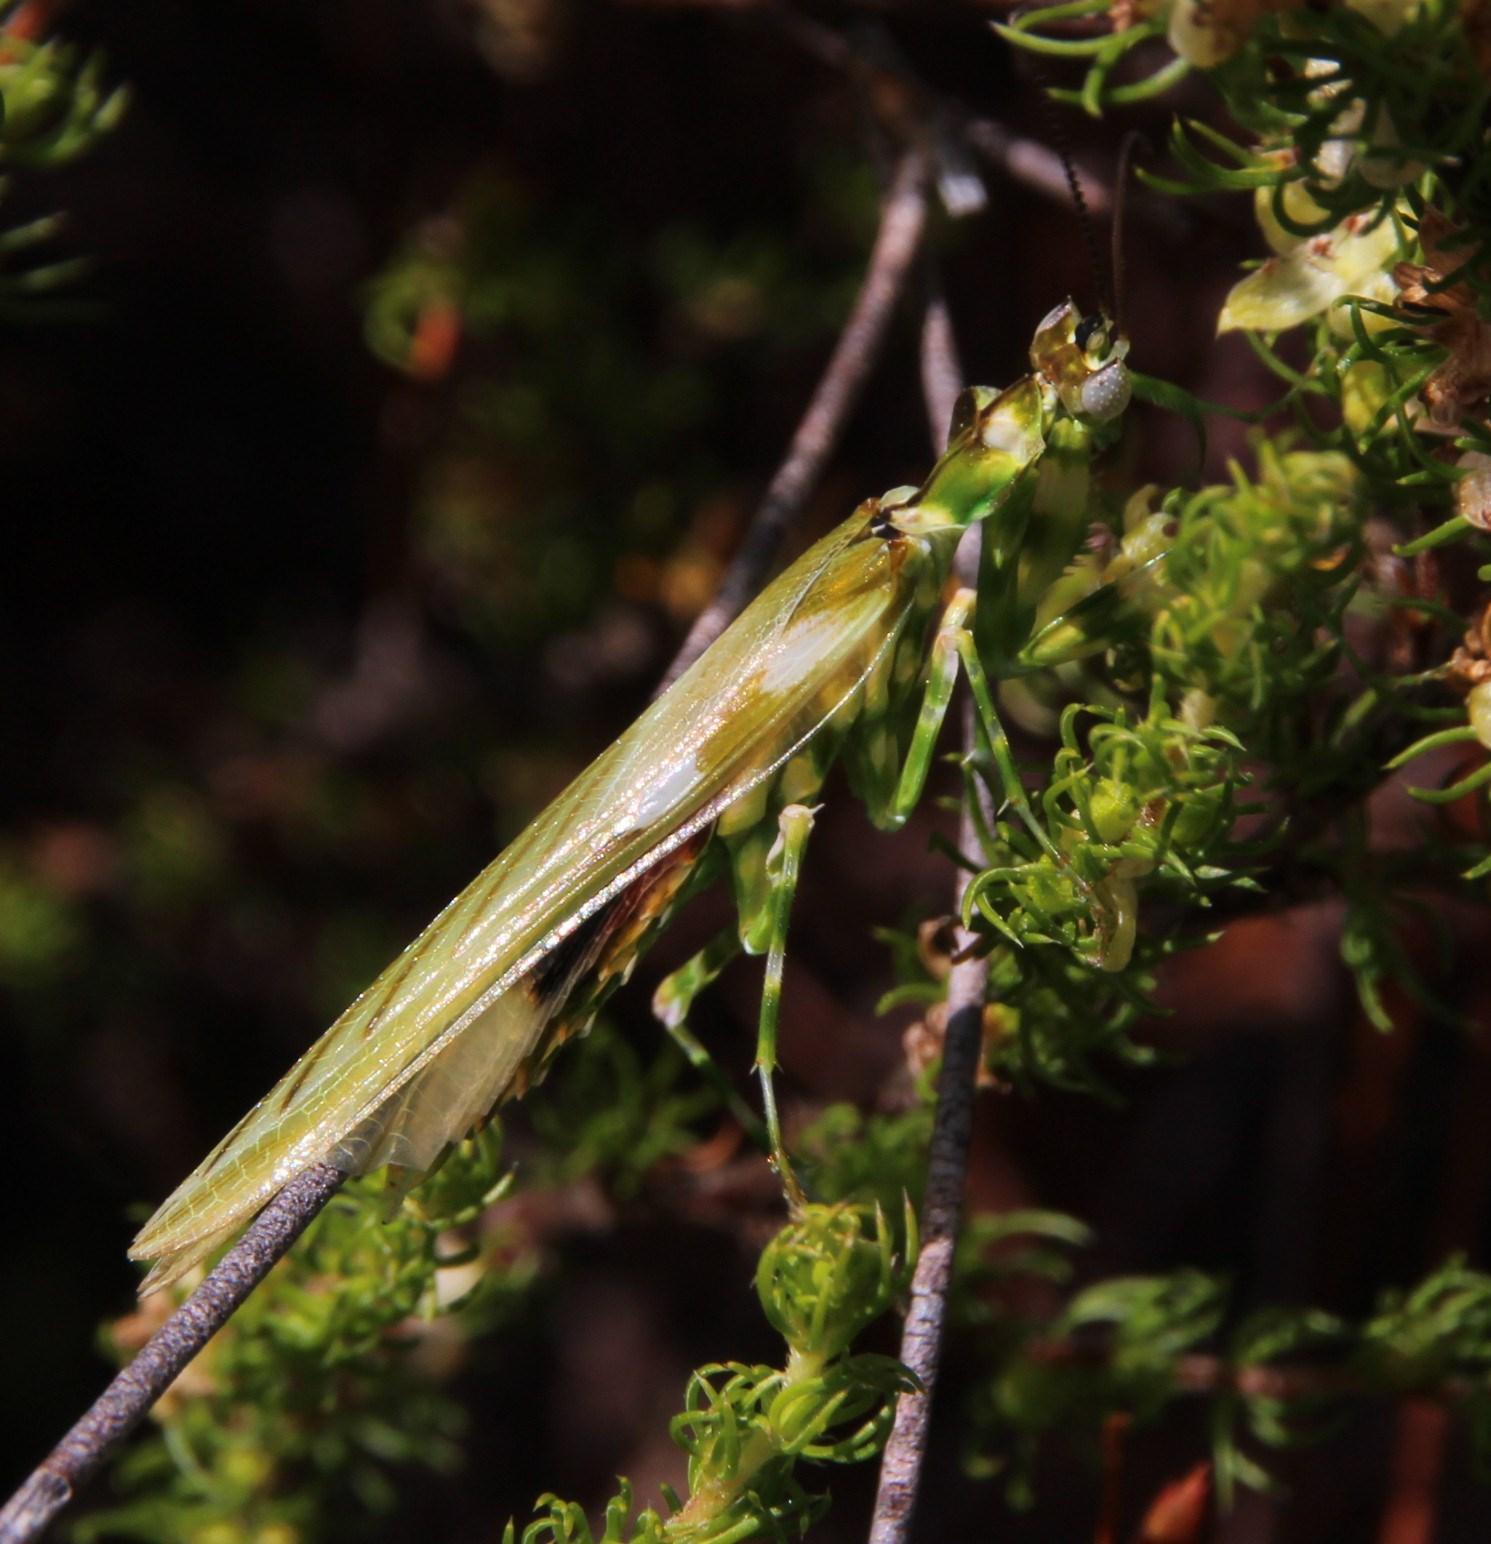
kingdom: Animalia
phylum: Arthropoda
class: Insecta
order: Mantodea
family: Galinthiadidae
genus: Harpagomantis
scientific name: Harpagomantis tricolor
